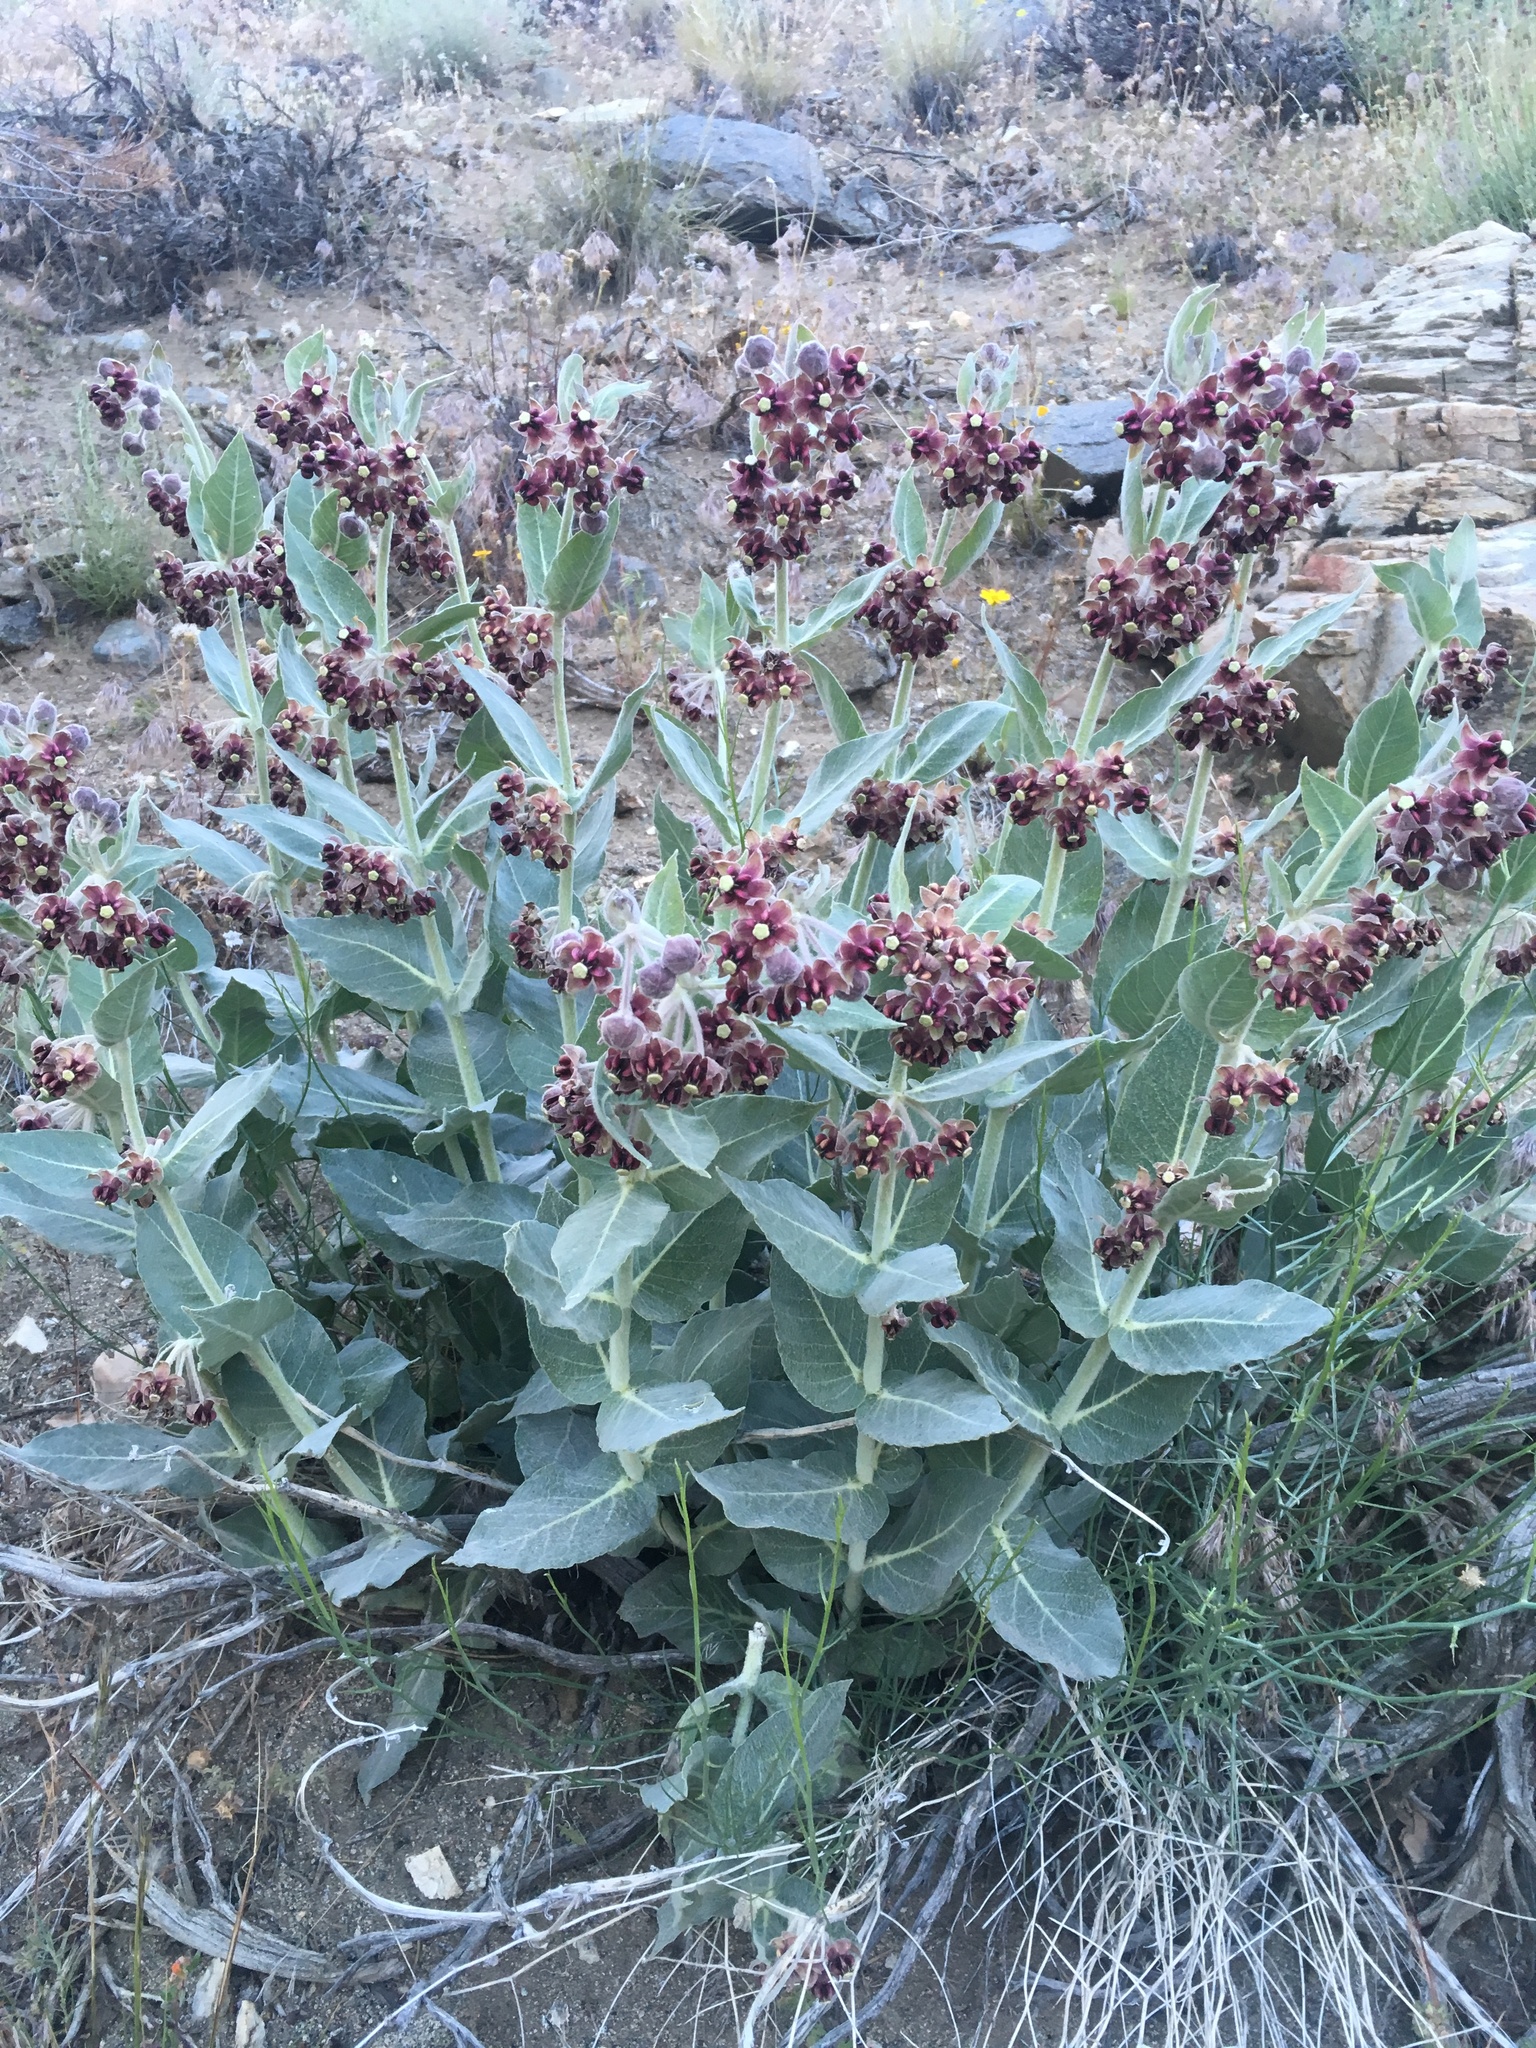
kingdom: Plantae
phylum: Tracheophyta
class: Magnoliopsida
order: Gentianales
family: Apocynaceae
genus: Asclepias
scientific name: Asclepias californica
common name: California milkweed
